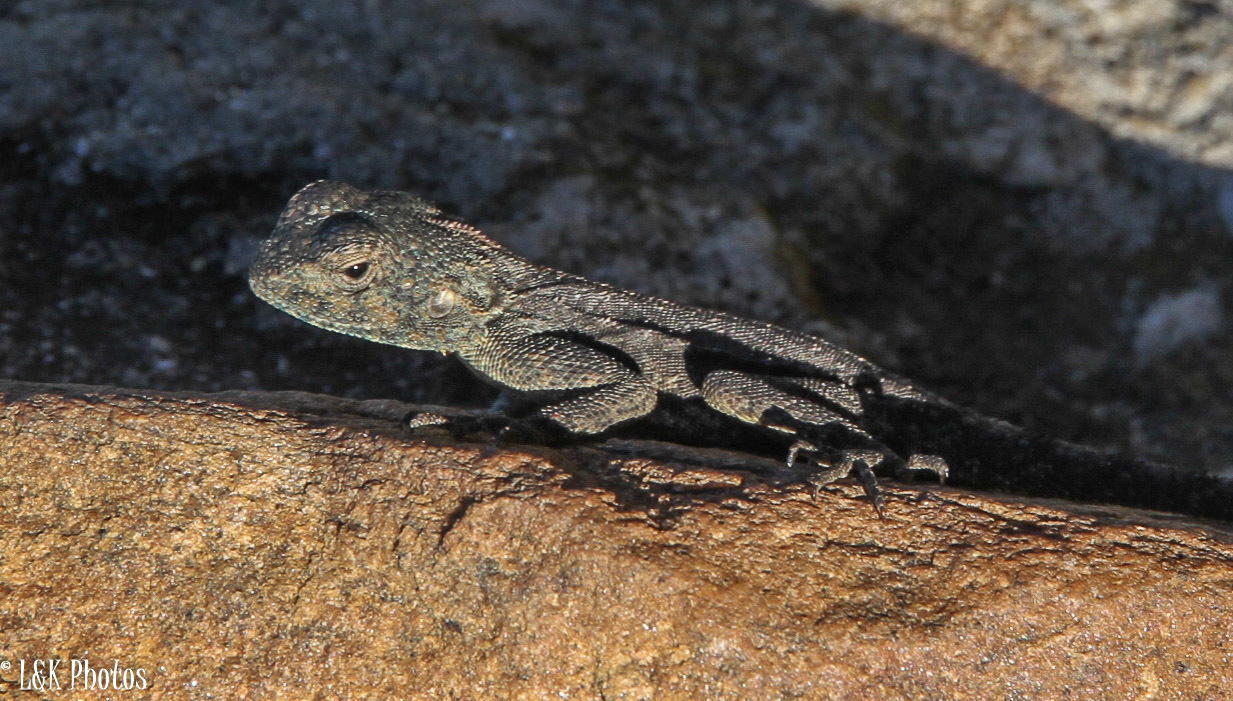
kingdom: Animalia
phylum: Chordata
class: Squamata
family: Agamidae
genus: Agama
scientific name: Agama atra
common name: Southern african rock agama
